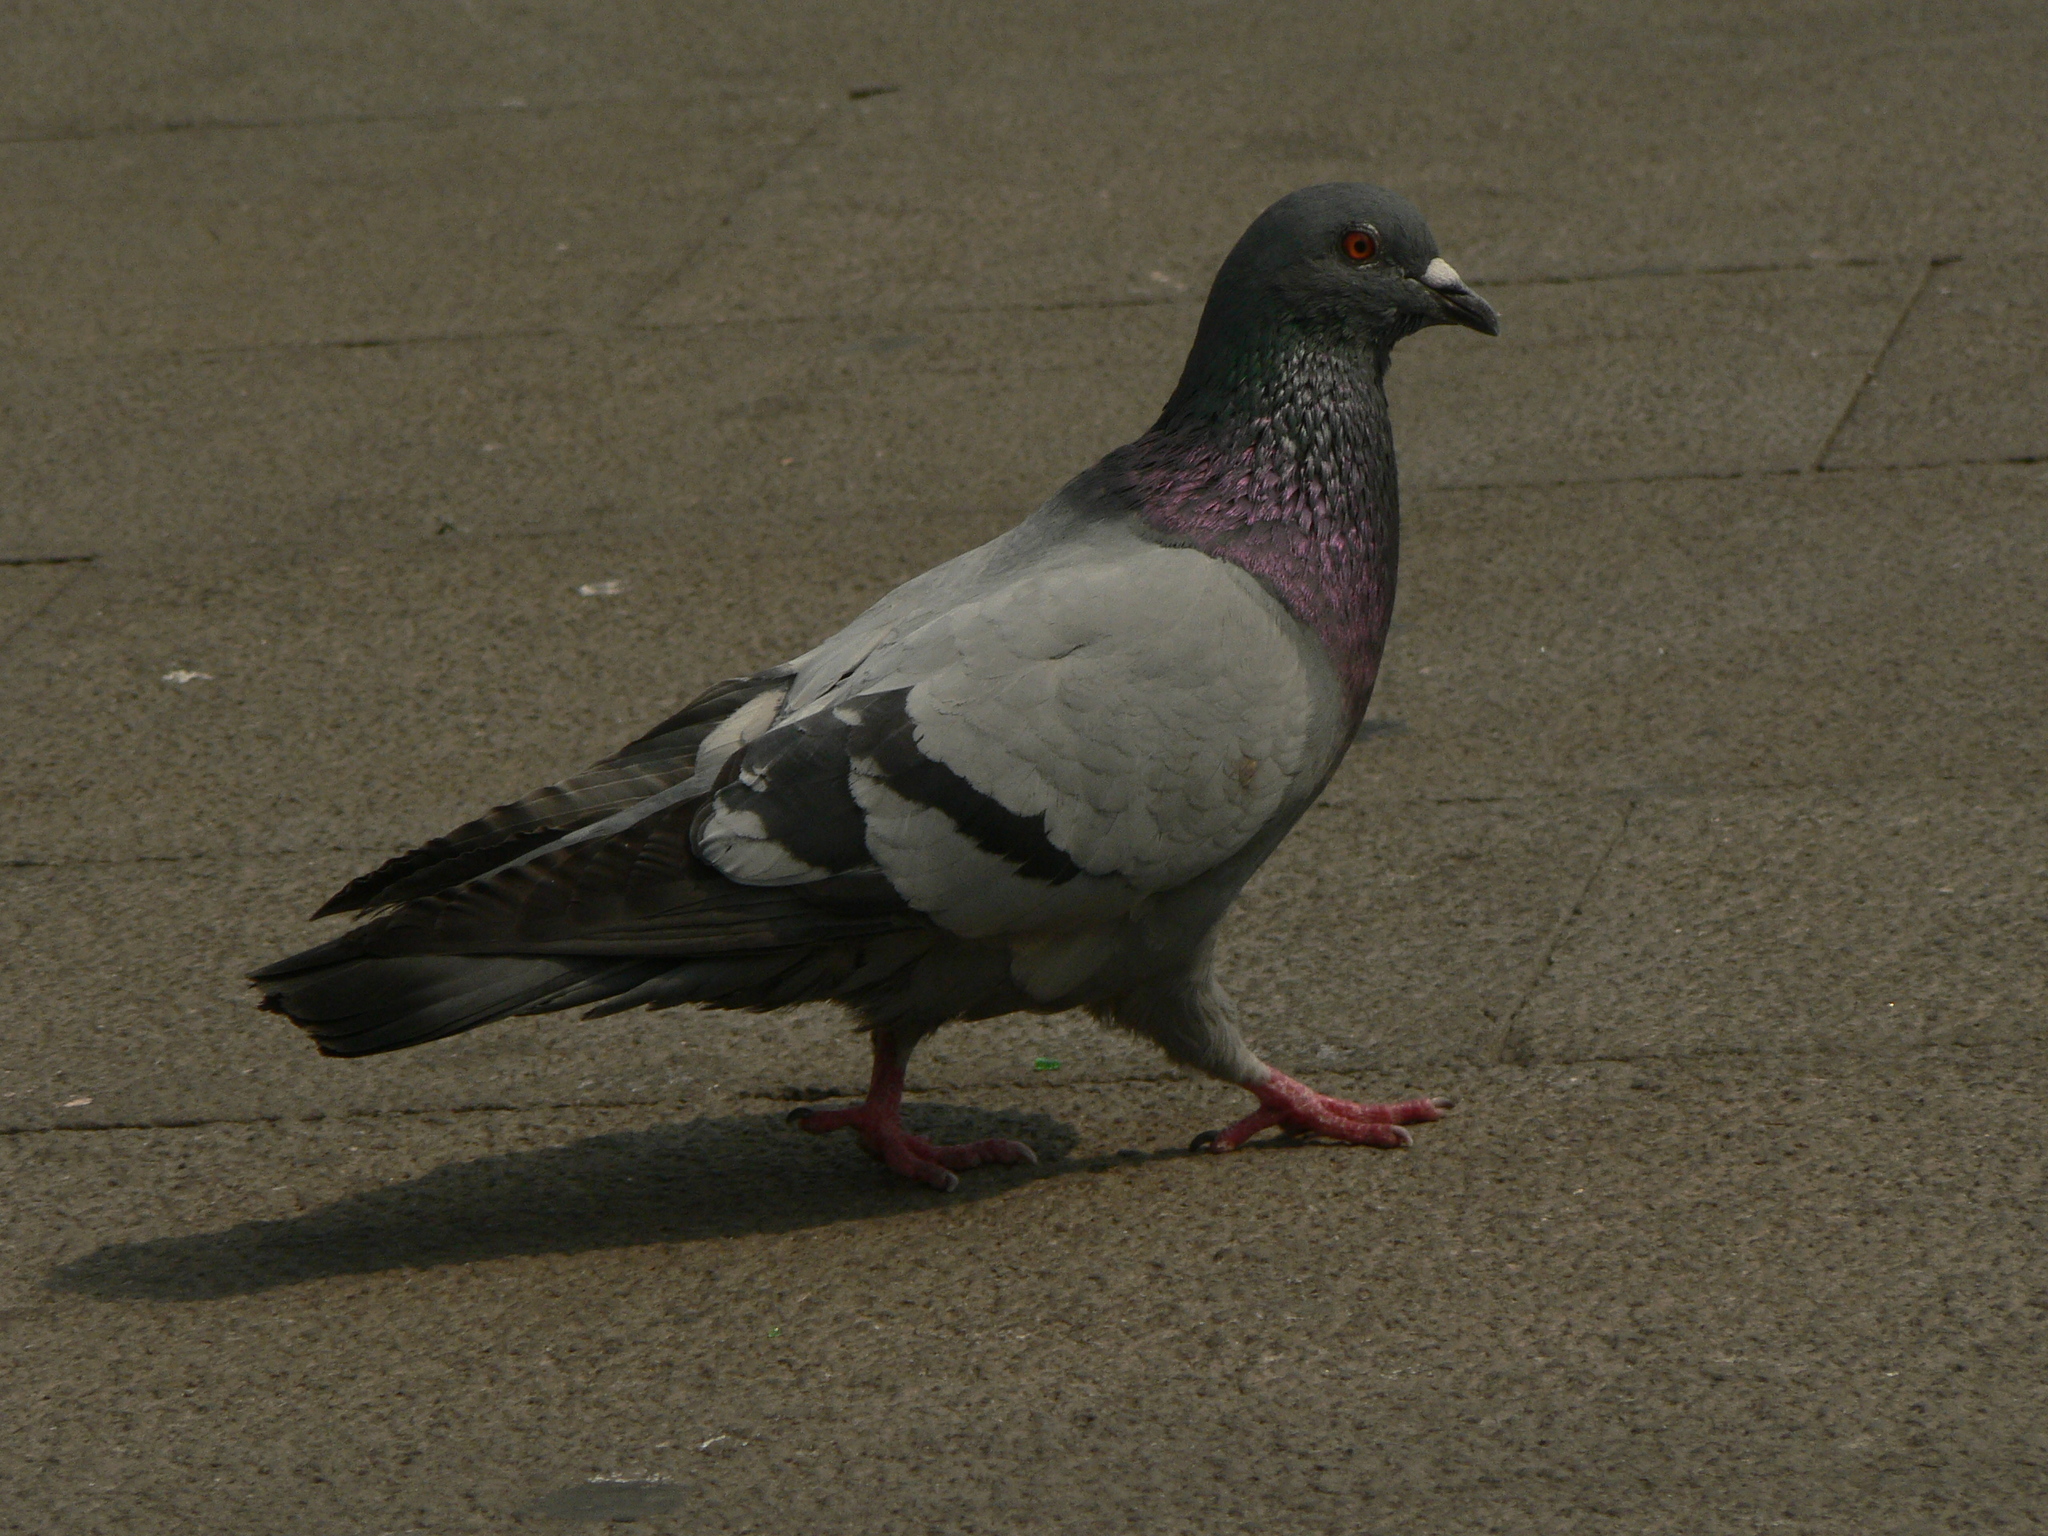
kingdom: Animalia
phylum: Chordata
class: Aves
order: Columbiformes
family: Columbidae
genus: Columba
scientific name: Columba livia
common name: Rock pigeon
